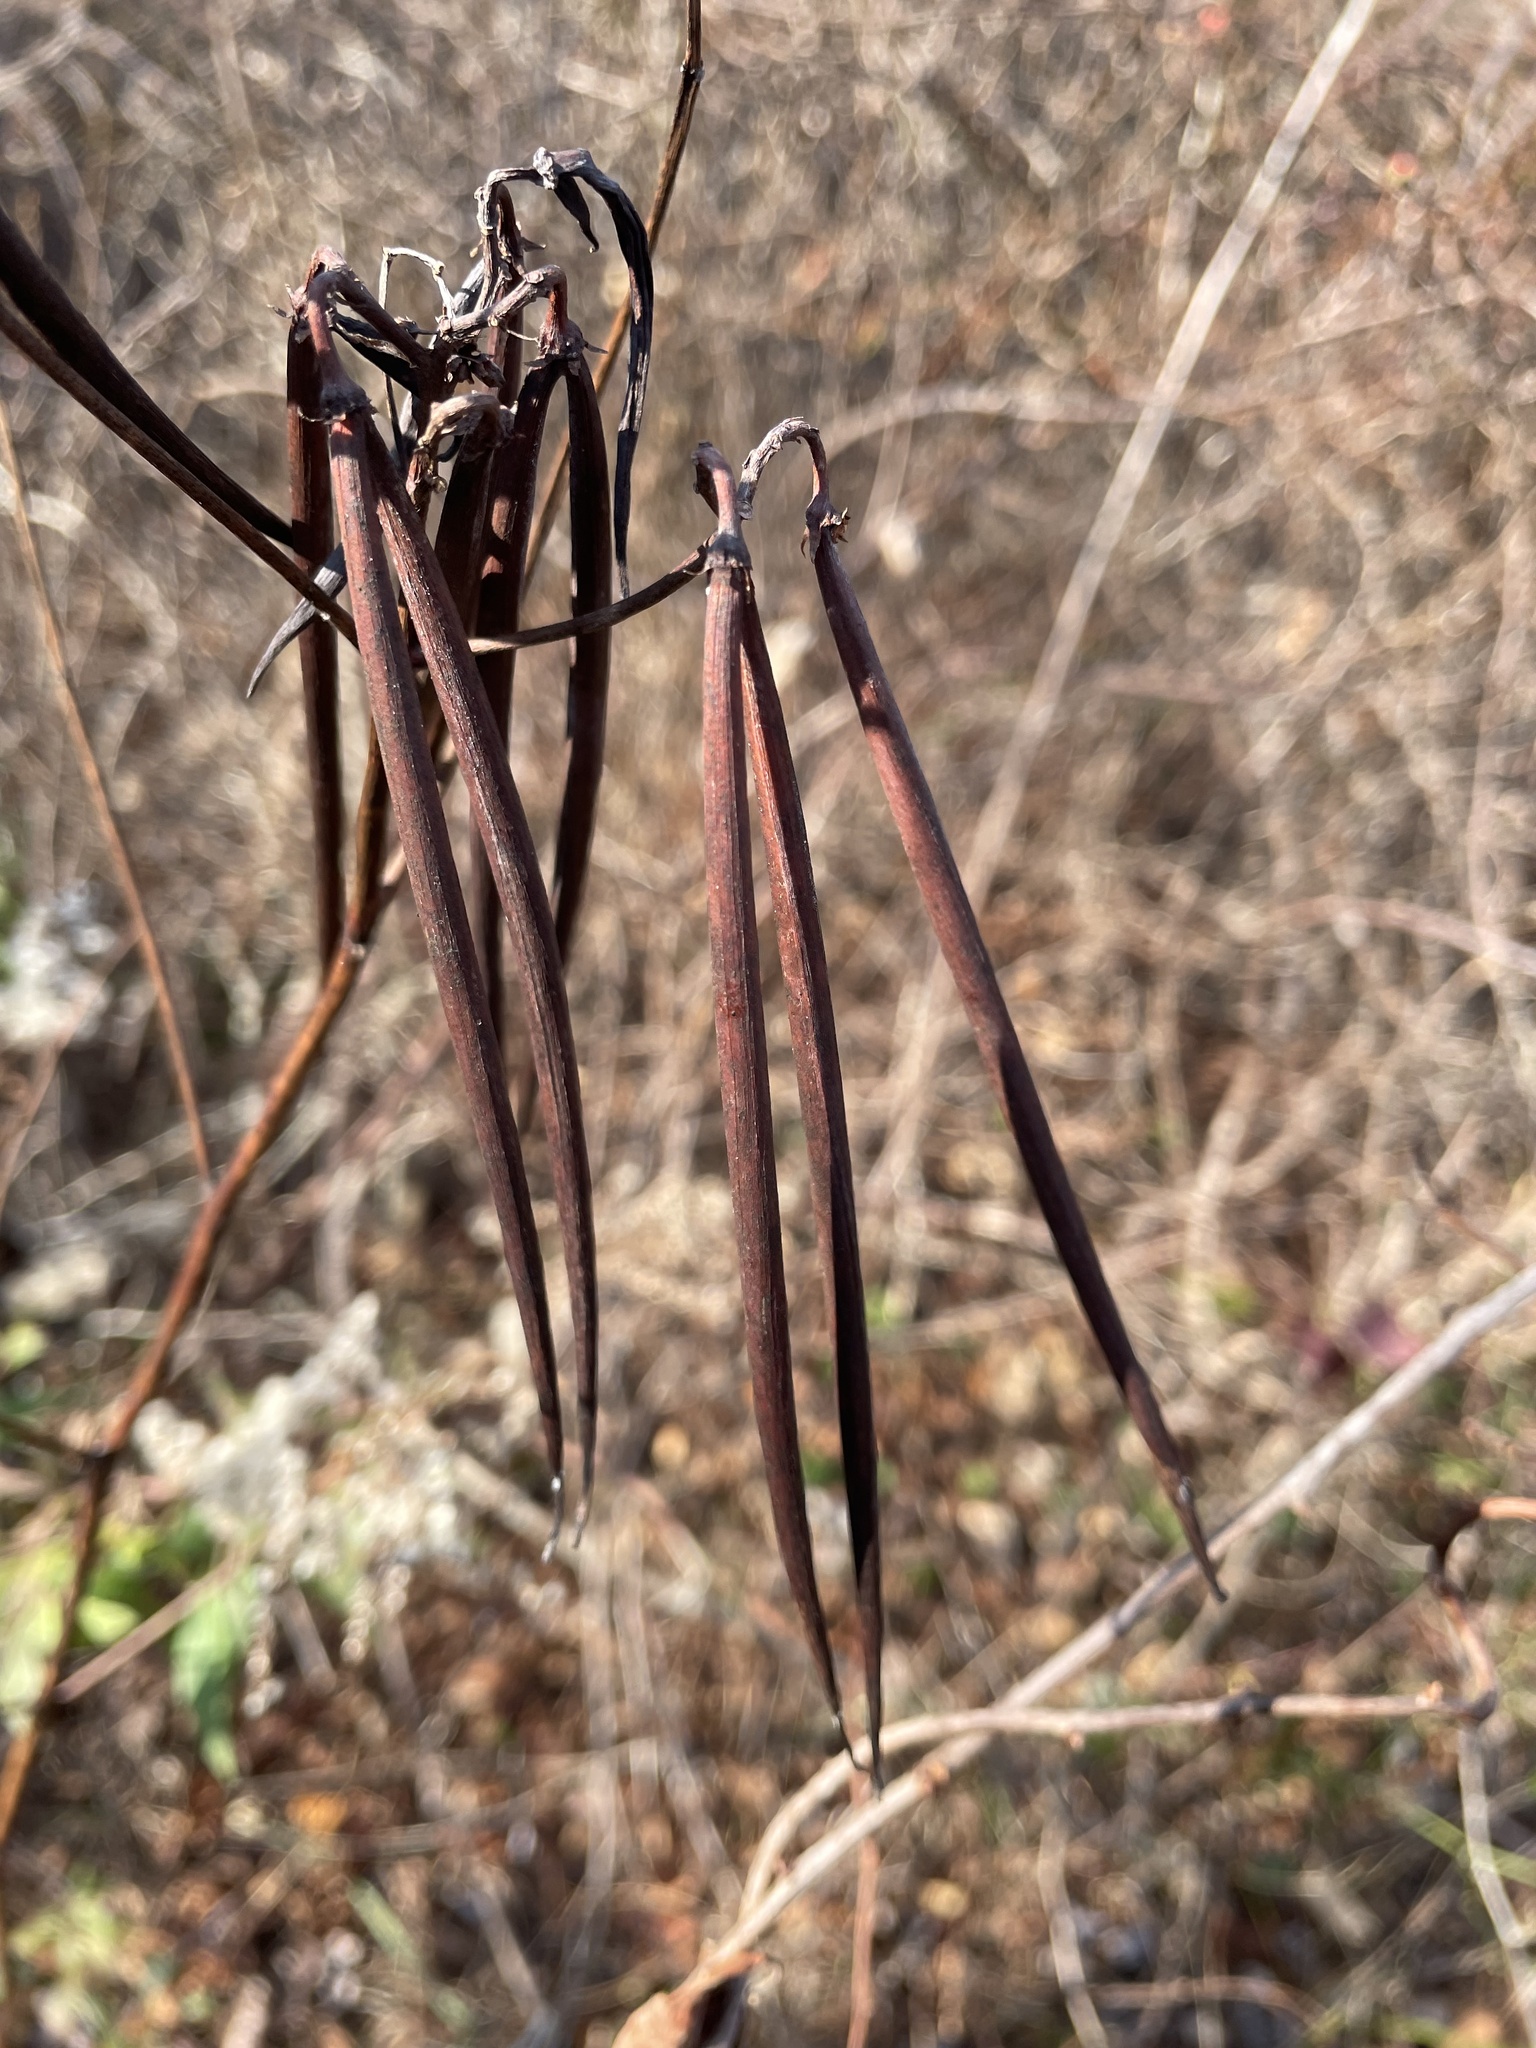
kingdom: Plantae
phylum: Tracheophyta
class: Magnoliopsida
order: Gentianales
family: Apocynaceae
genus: Apocynum
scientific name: Apocynum cannabinum
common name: Hemp dogbane
